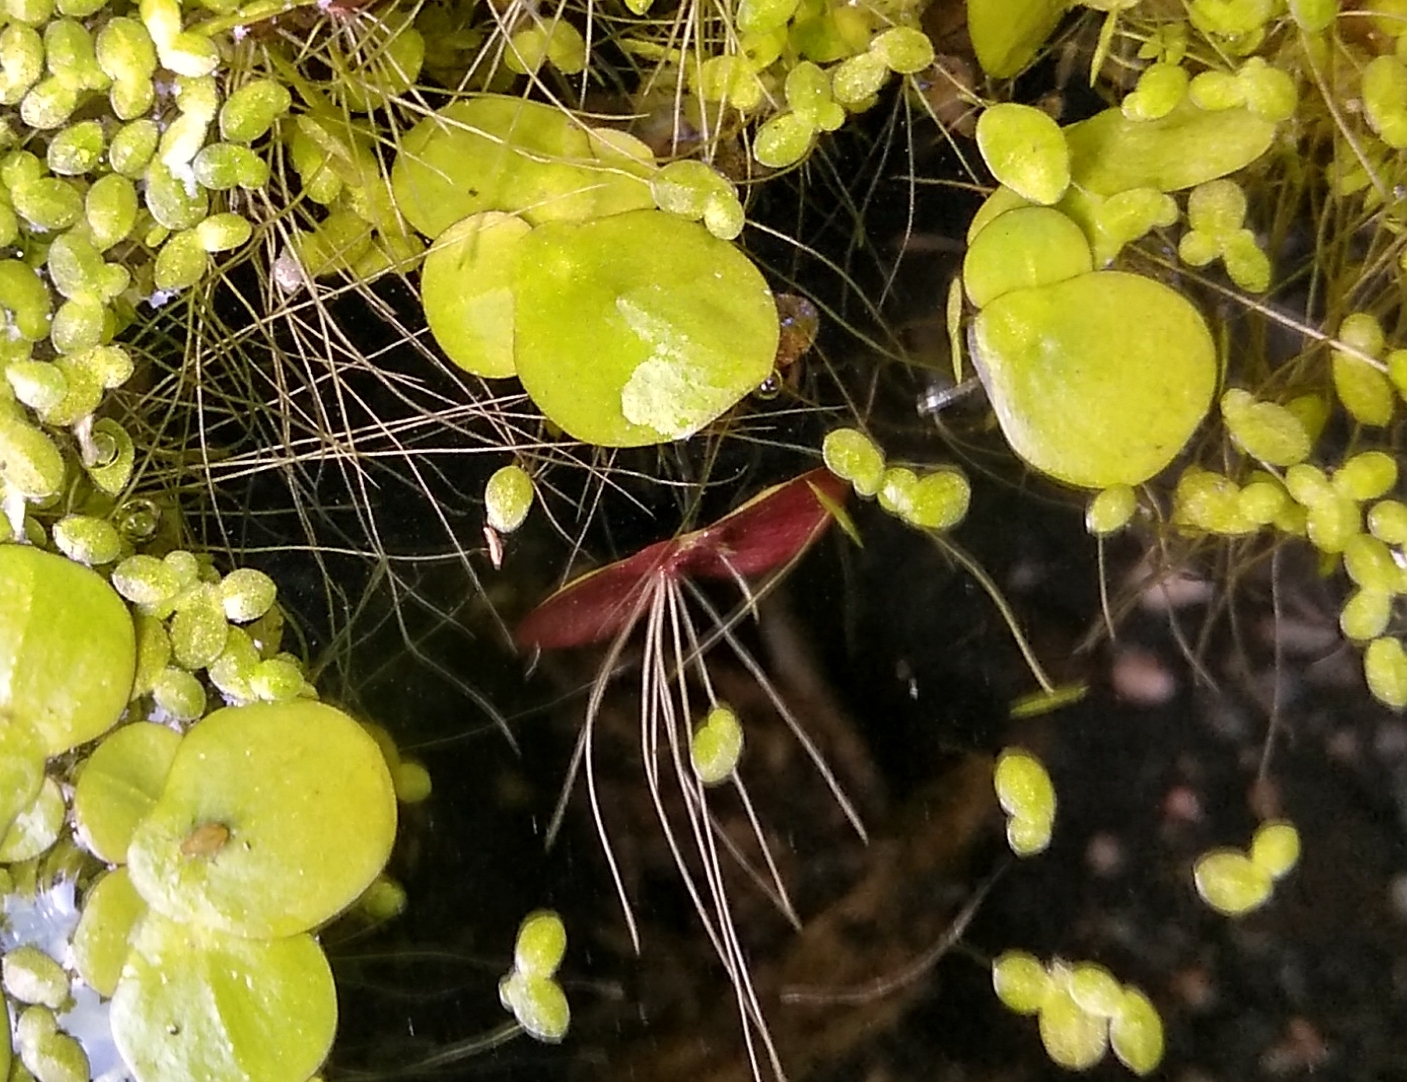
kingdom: Plantae
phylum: Tracheophyta
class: Liliopsida
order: Alismatales
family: Araceae
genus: Spirodela
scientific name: Spirodela polyrhiza
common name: Great duckweed
